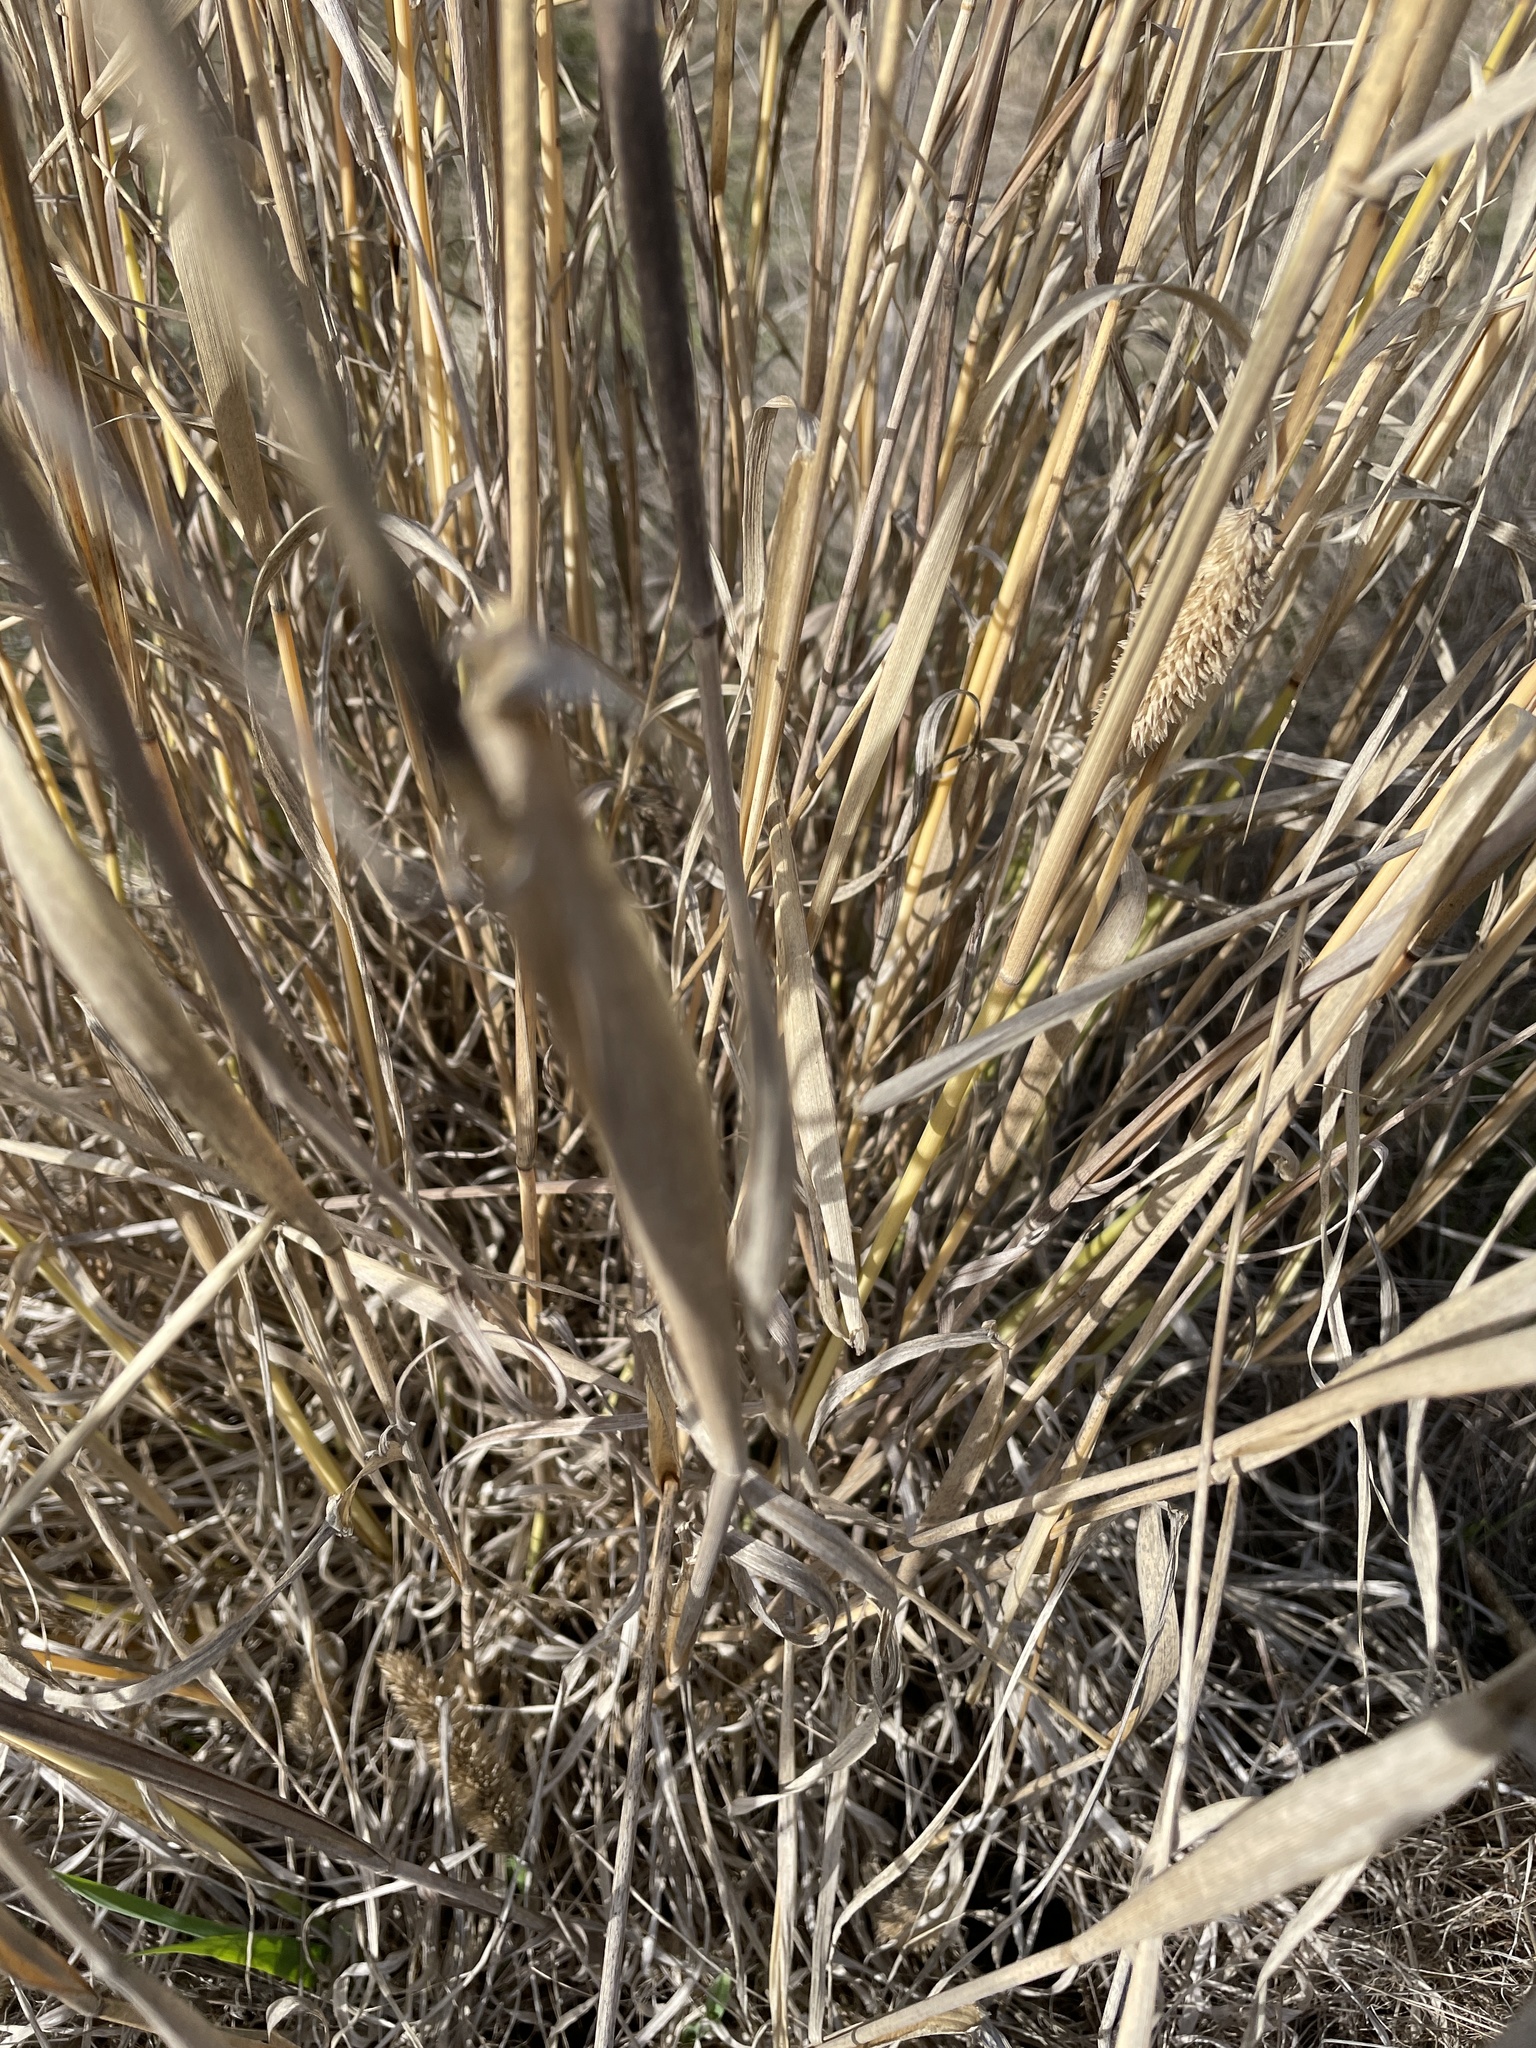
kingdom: Plantae
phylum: Tracheophyta
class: Liliopsida
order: Poales
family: Poaceae
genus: Phalaris
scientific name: Phalaris aquatica
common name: Bulbous canary-grass
